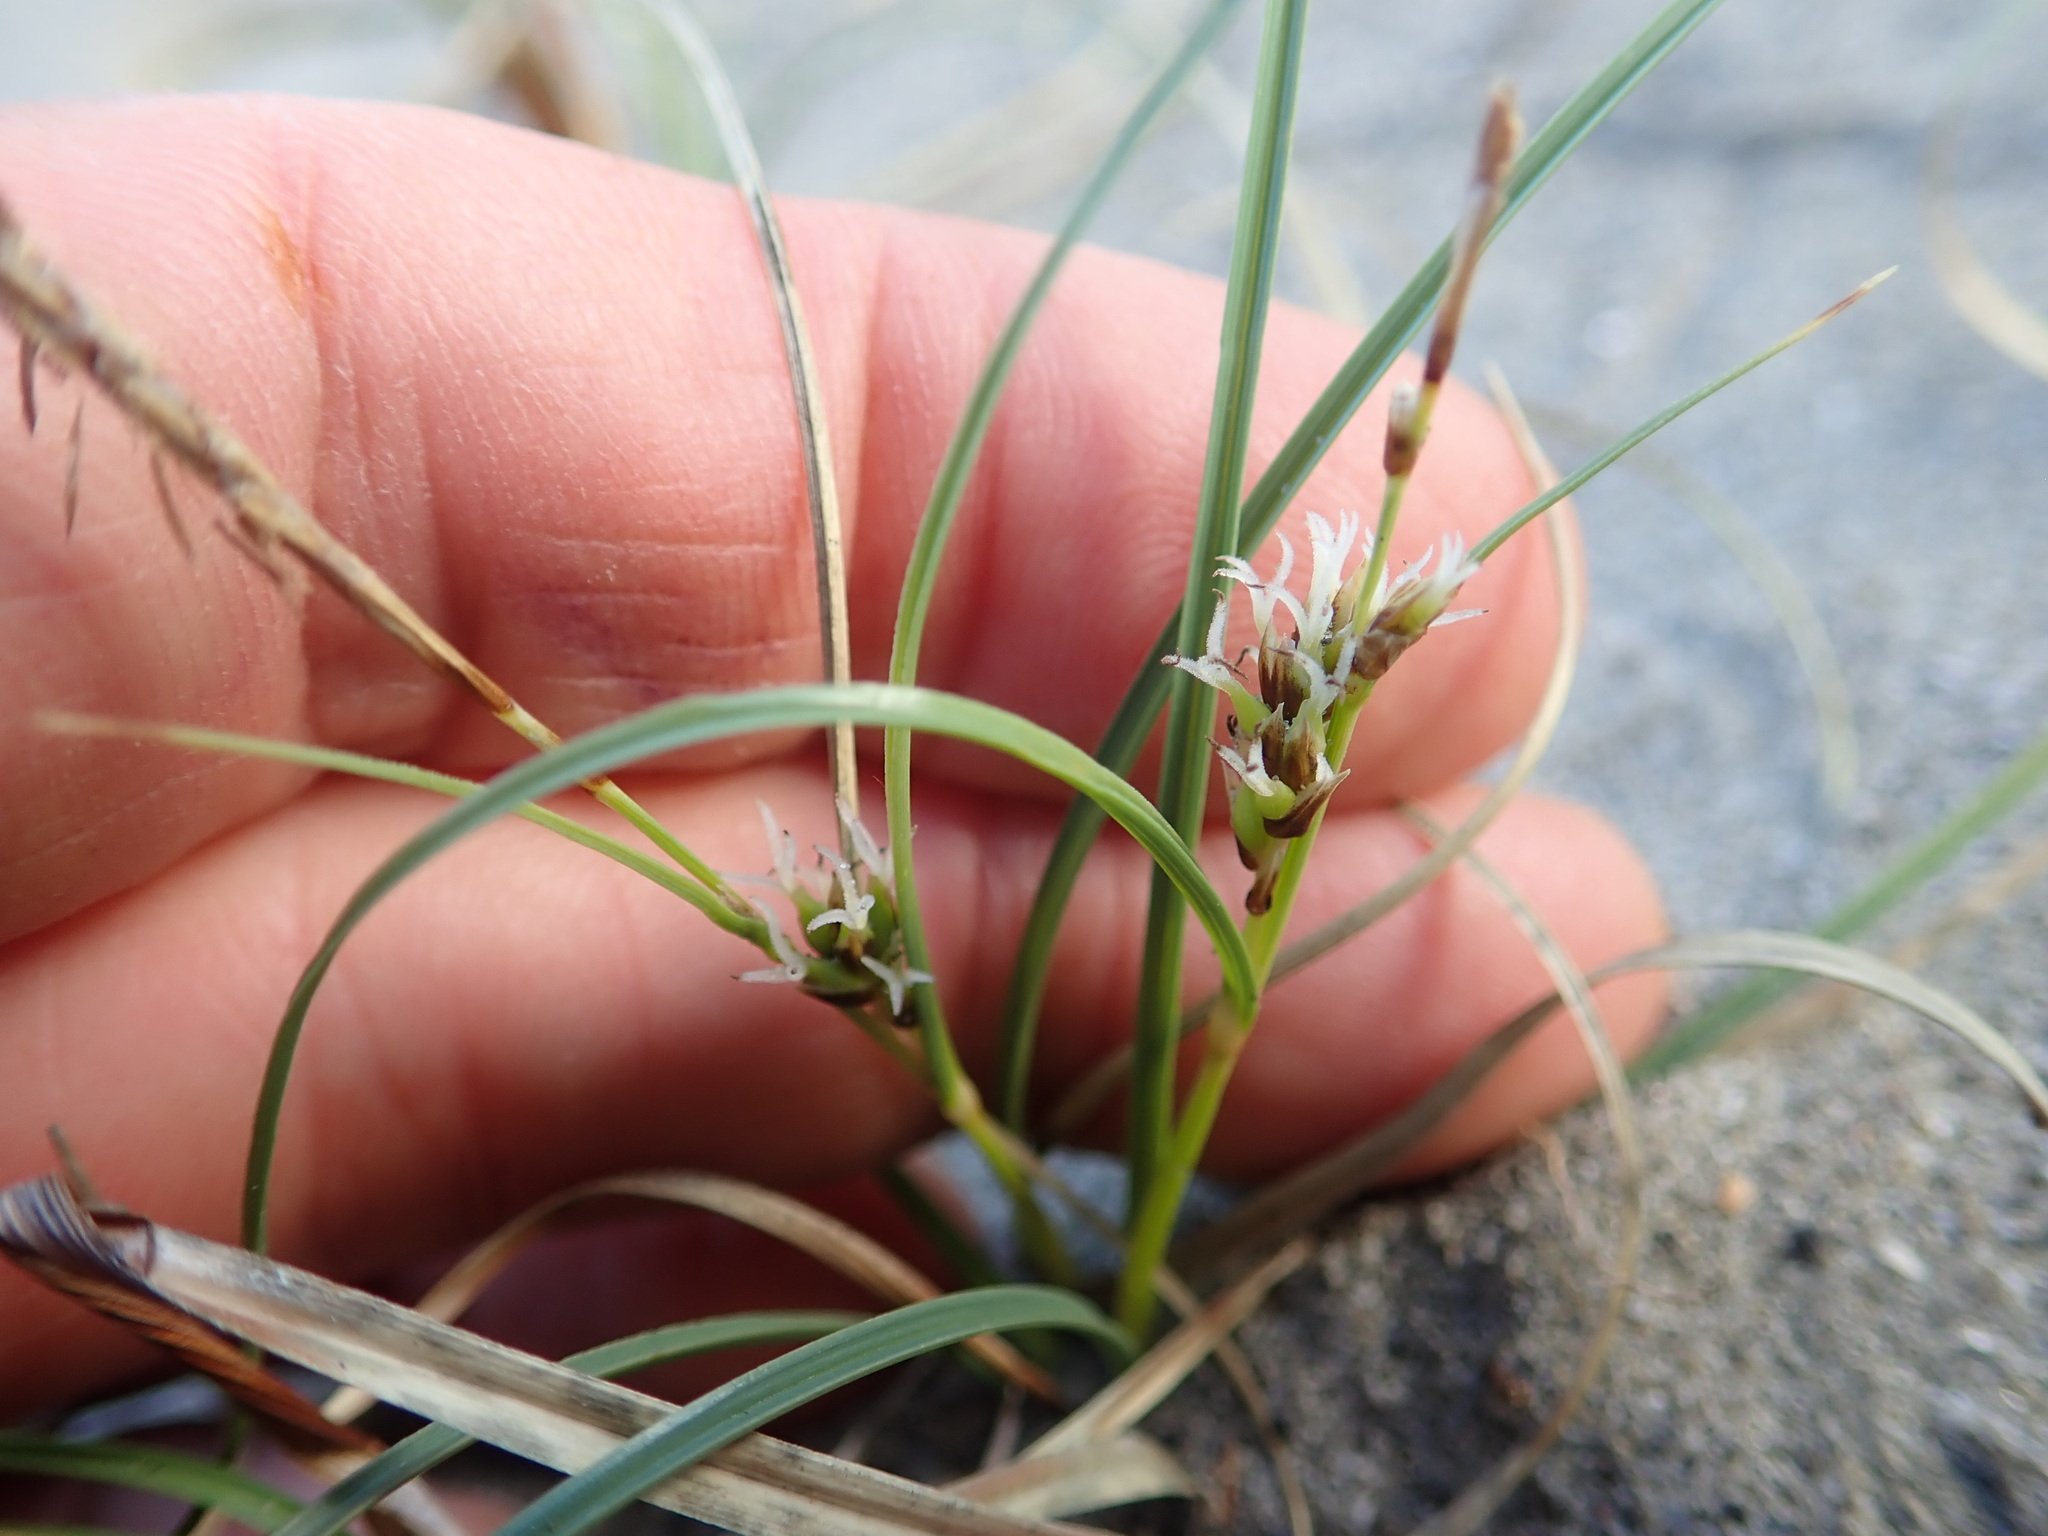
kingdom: Plantae
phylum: Tracheophyta
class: Liliopsida
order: Poales
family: Cyperaceae
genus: Carex
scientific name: Carex pumila
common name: Dwarf sedge
